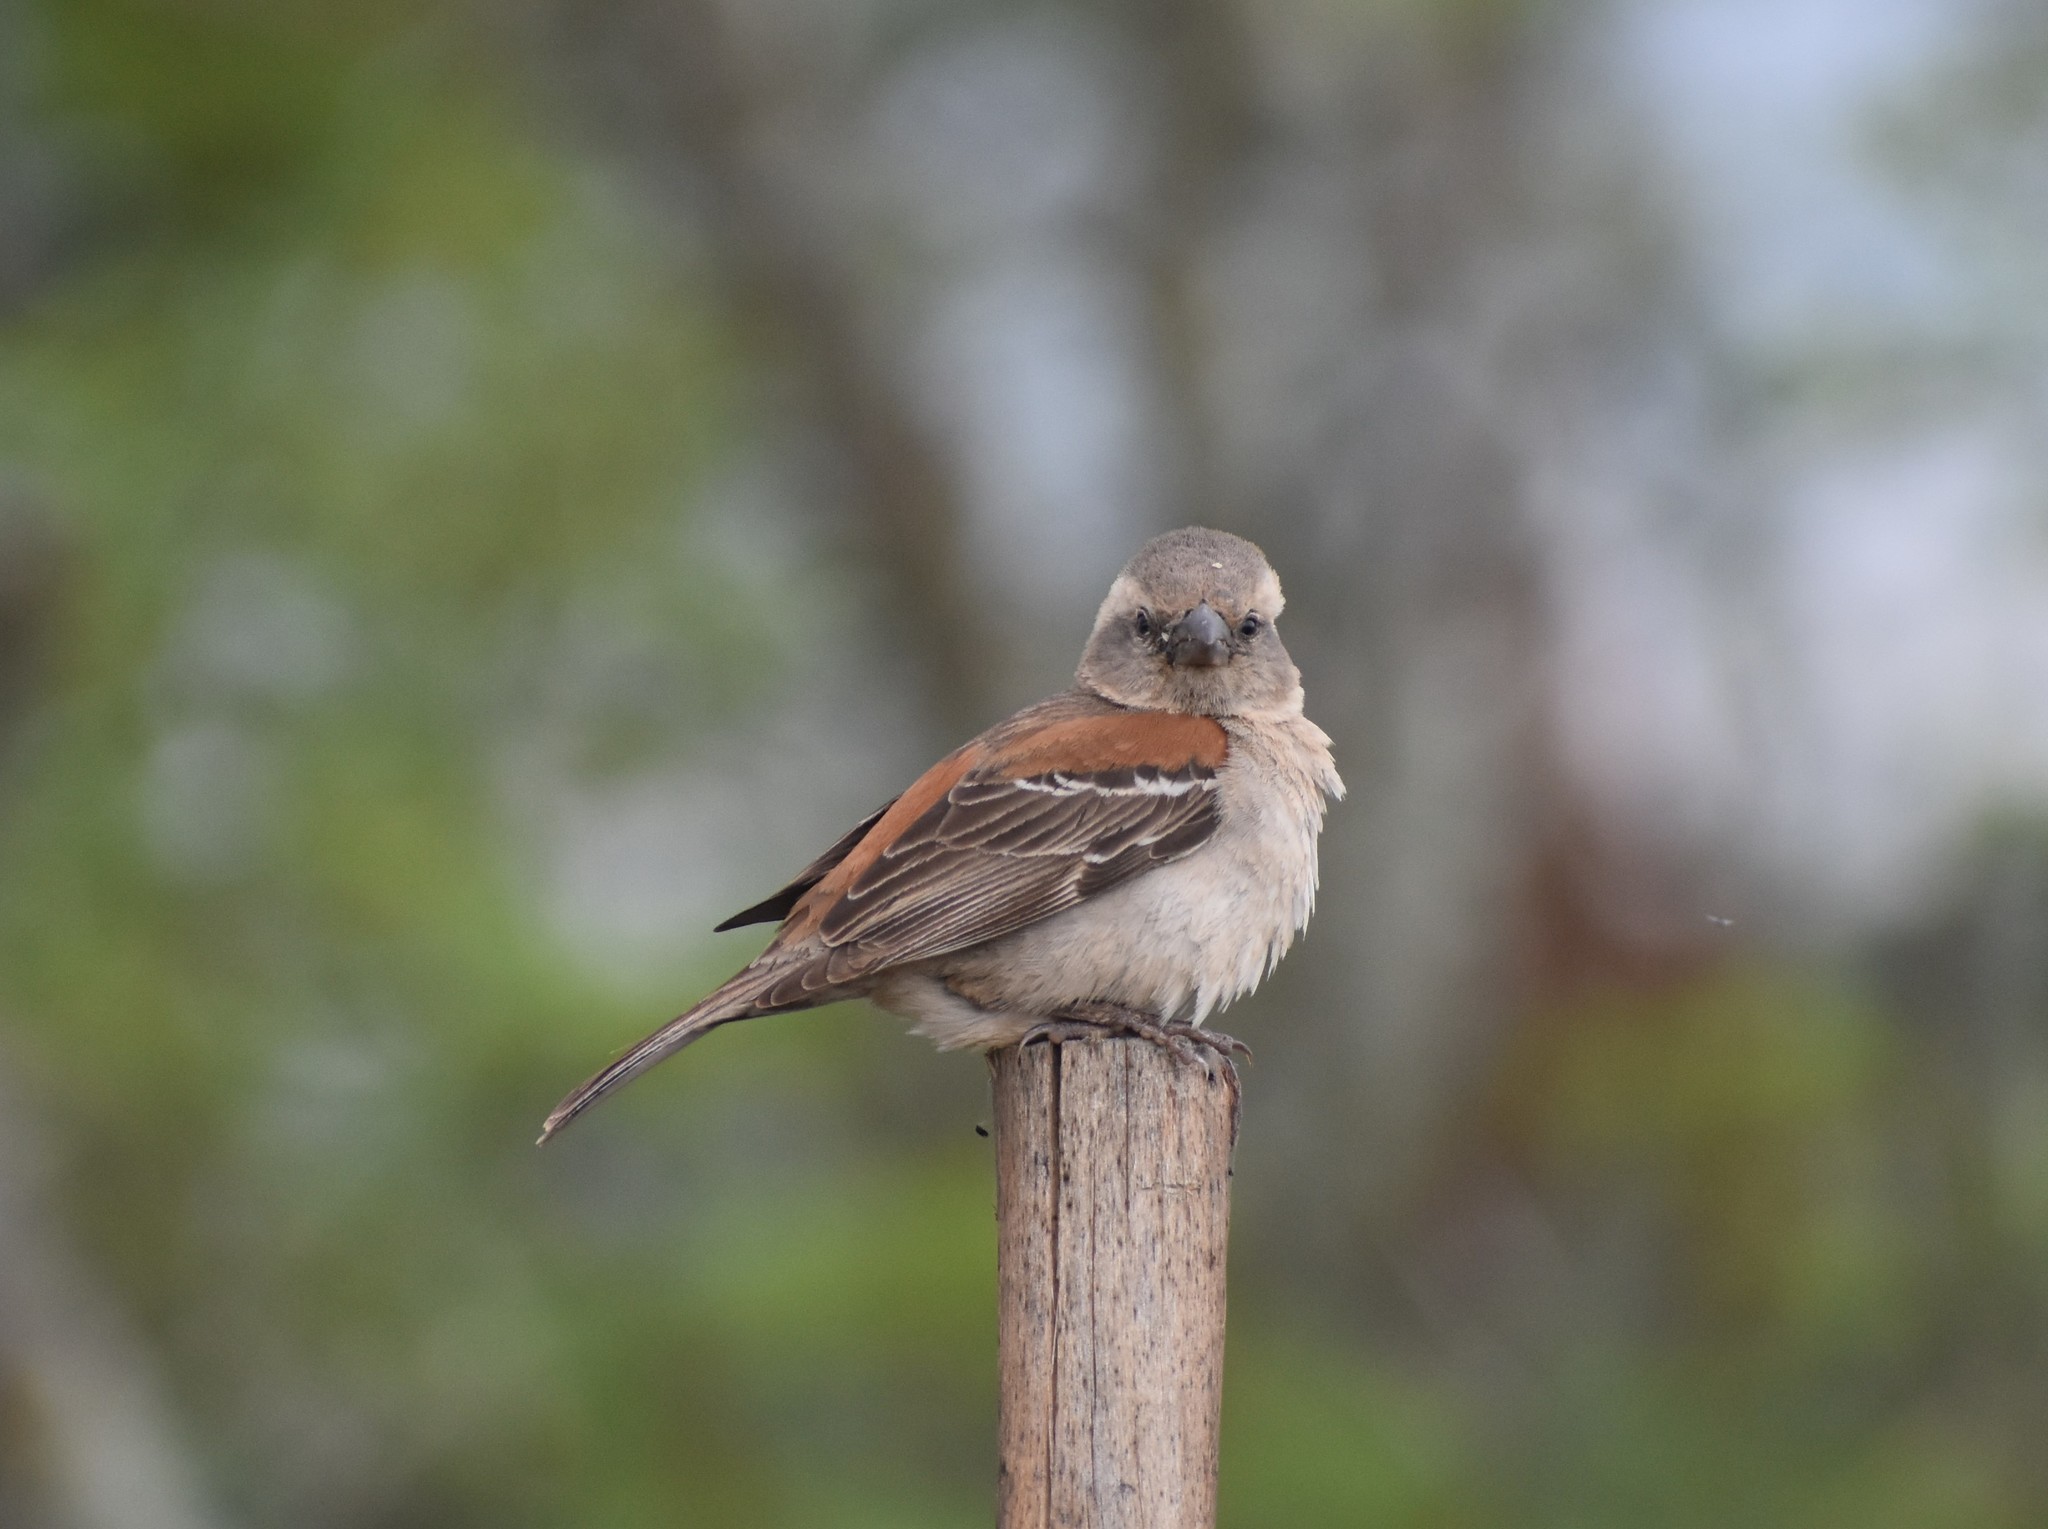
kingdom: Animalia
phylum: Chordata
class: Aves
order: Passeriformes
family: Passeridae
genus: Passer
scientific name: Passer melanurus
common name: Cape sparrow
